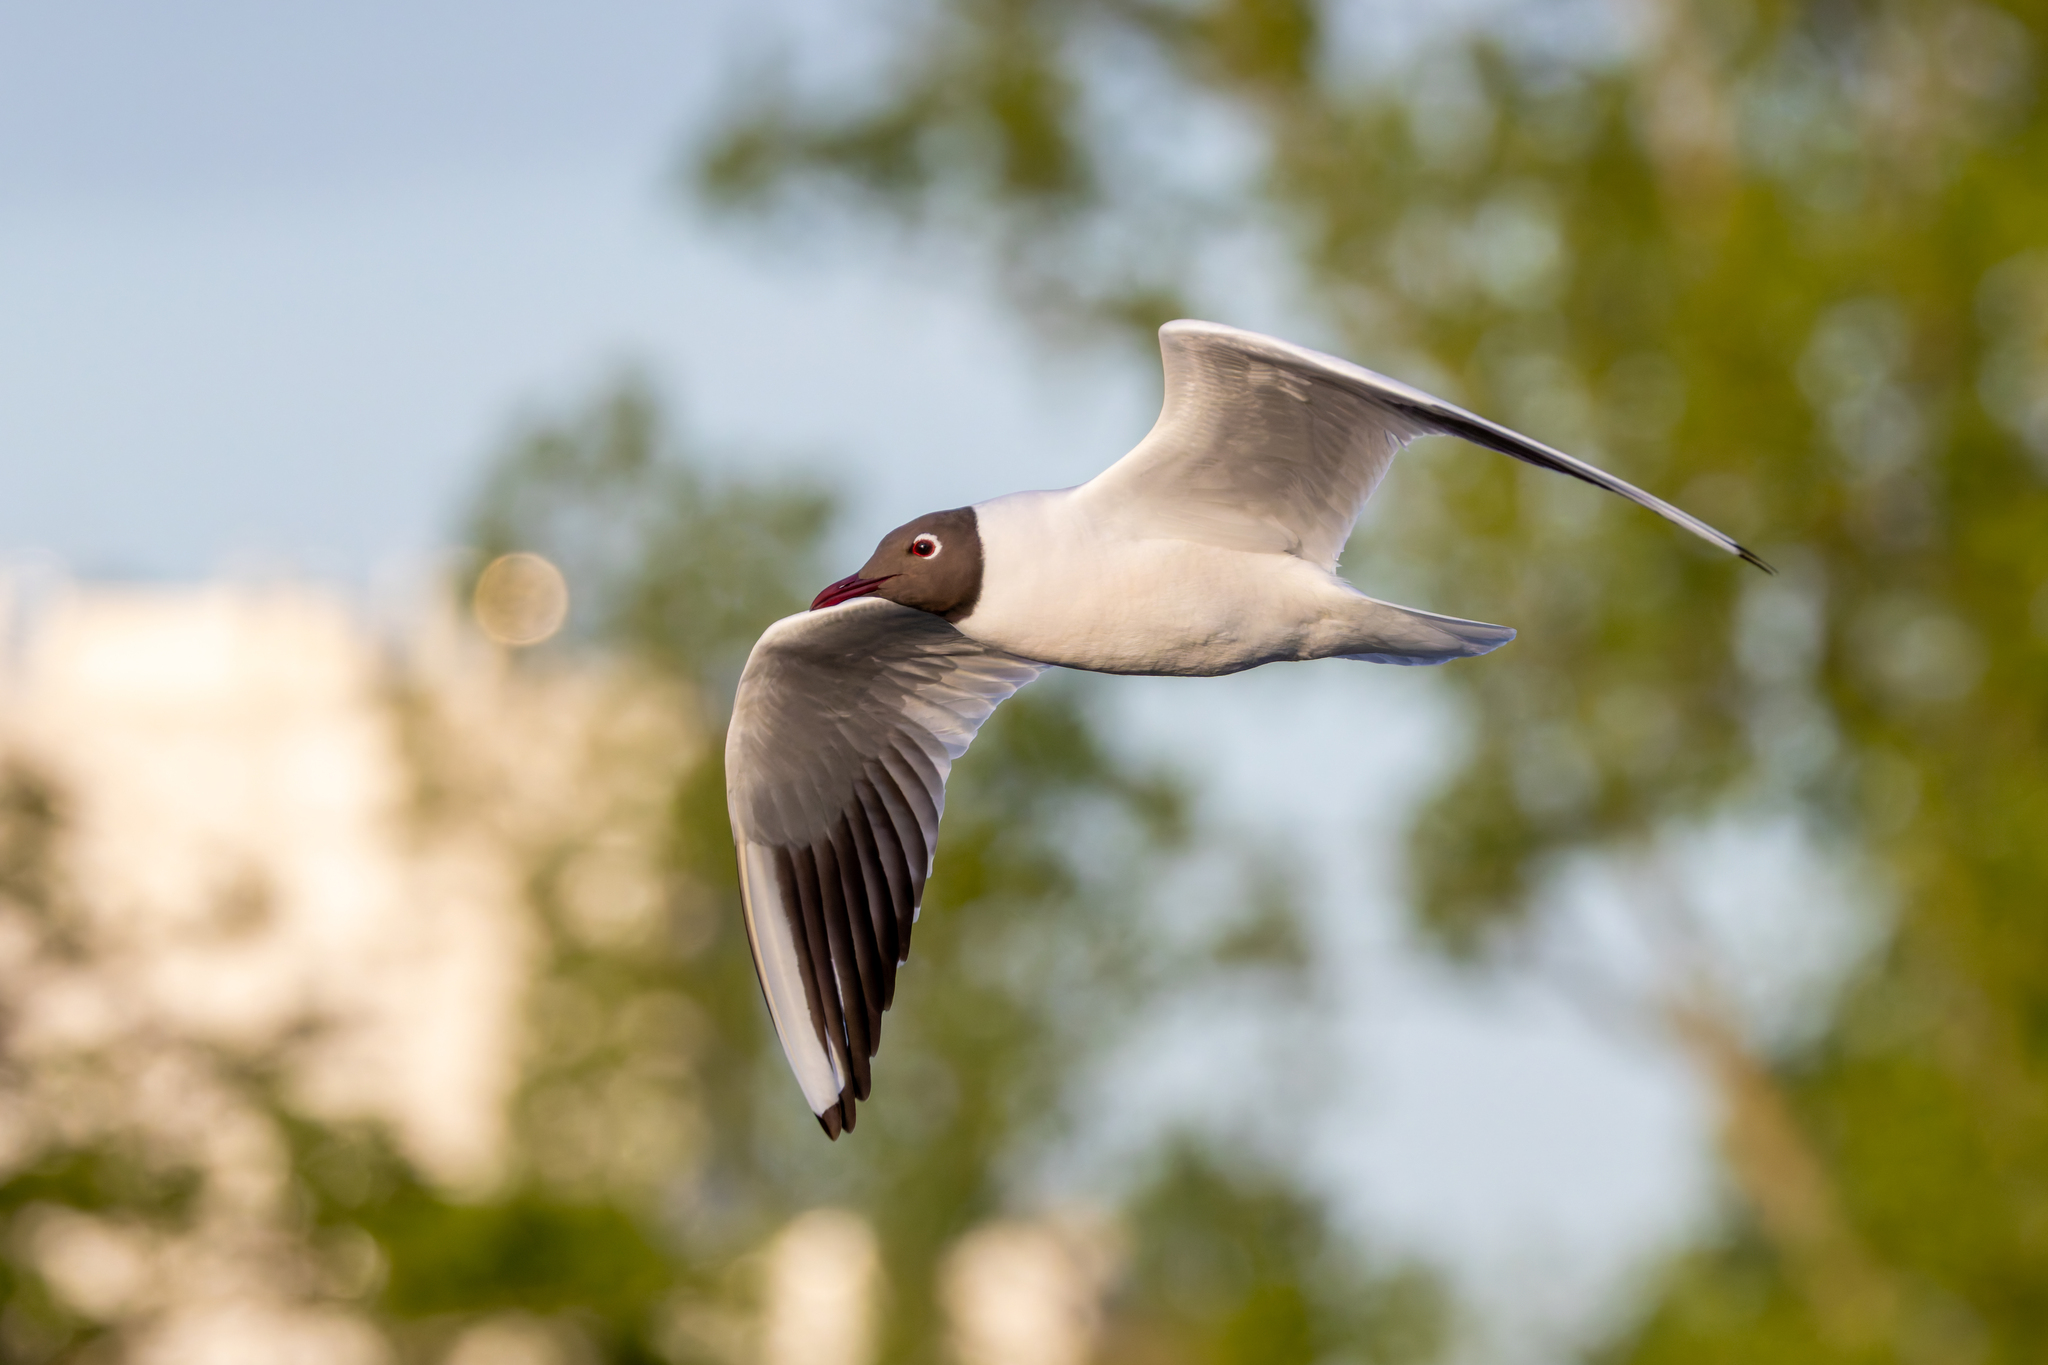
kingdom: Animalia
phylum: Chordata
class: Aves
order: Charadriiformes
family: Laridae
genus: Chroicocephalus
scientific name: Chroicocephalus ridibundus
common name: Black-headed gull
